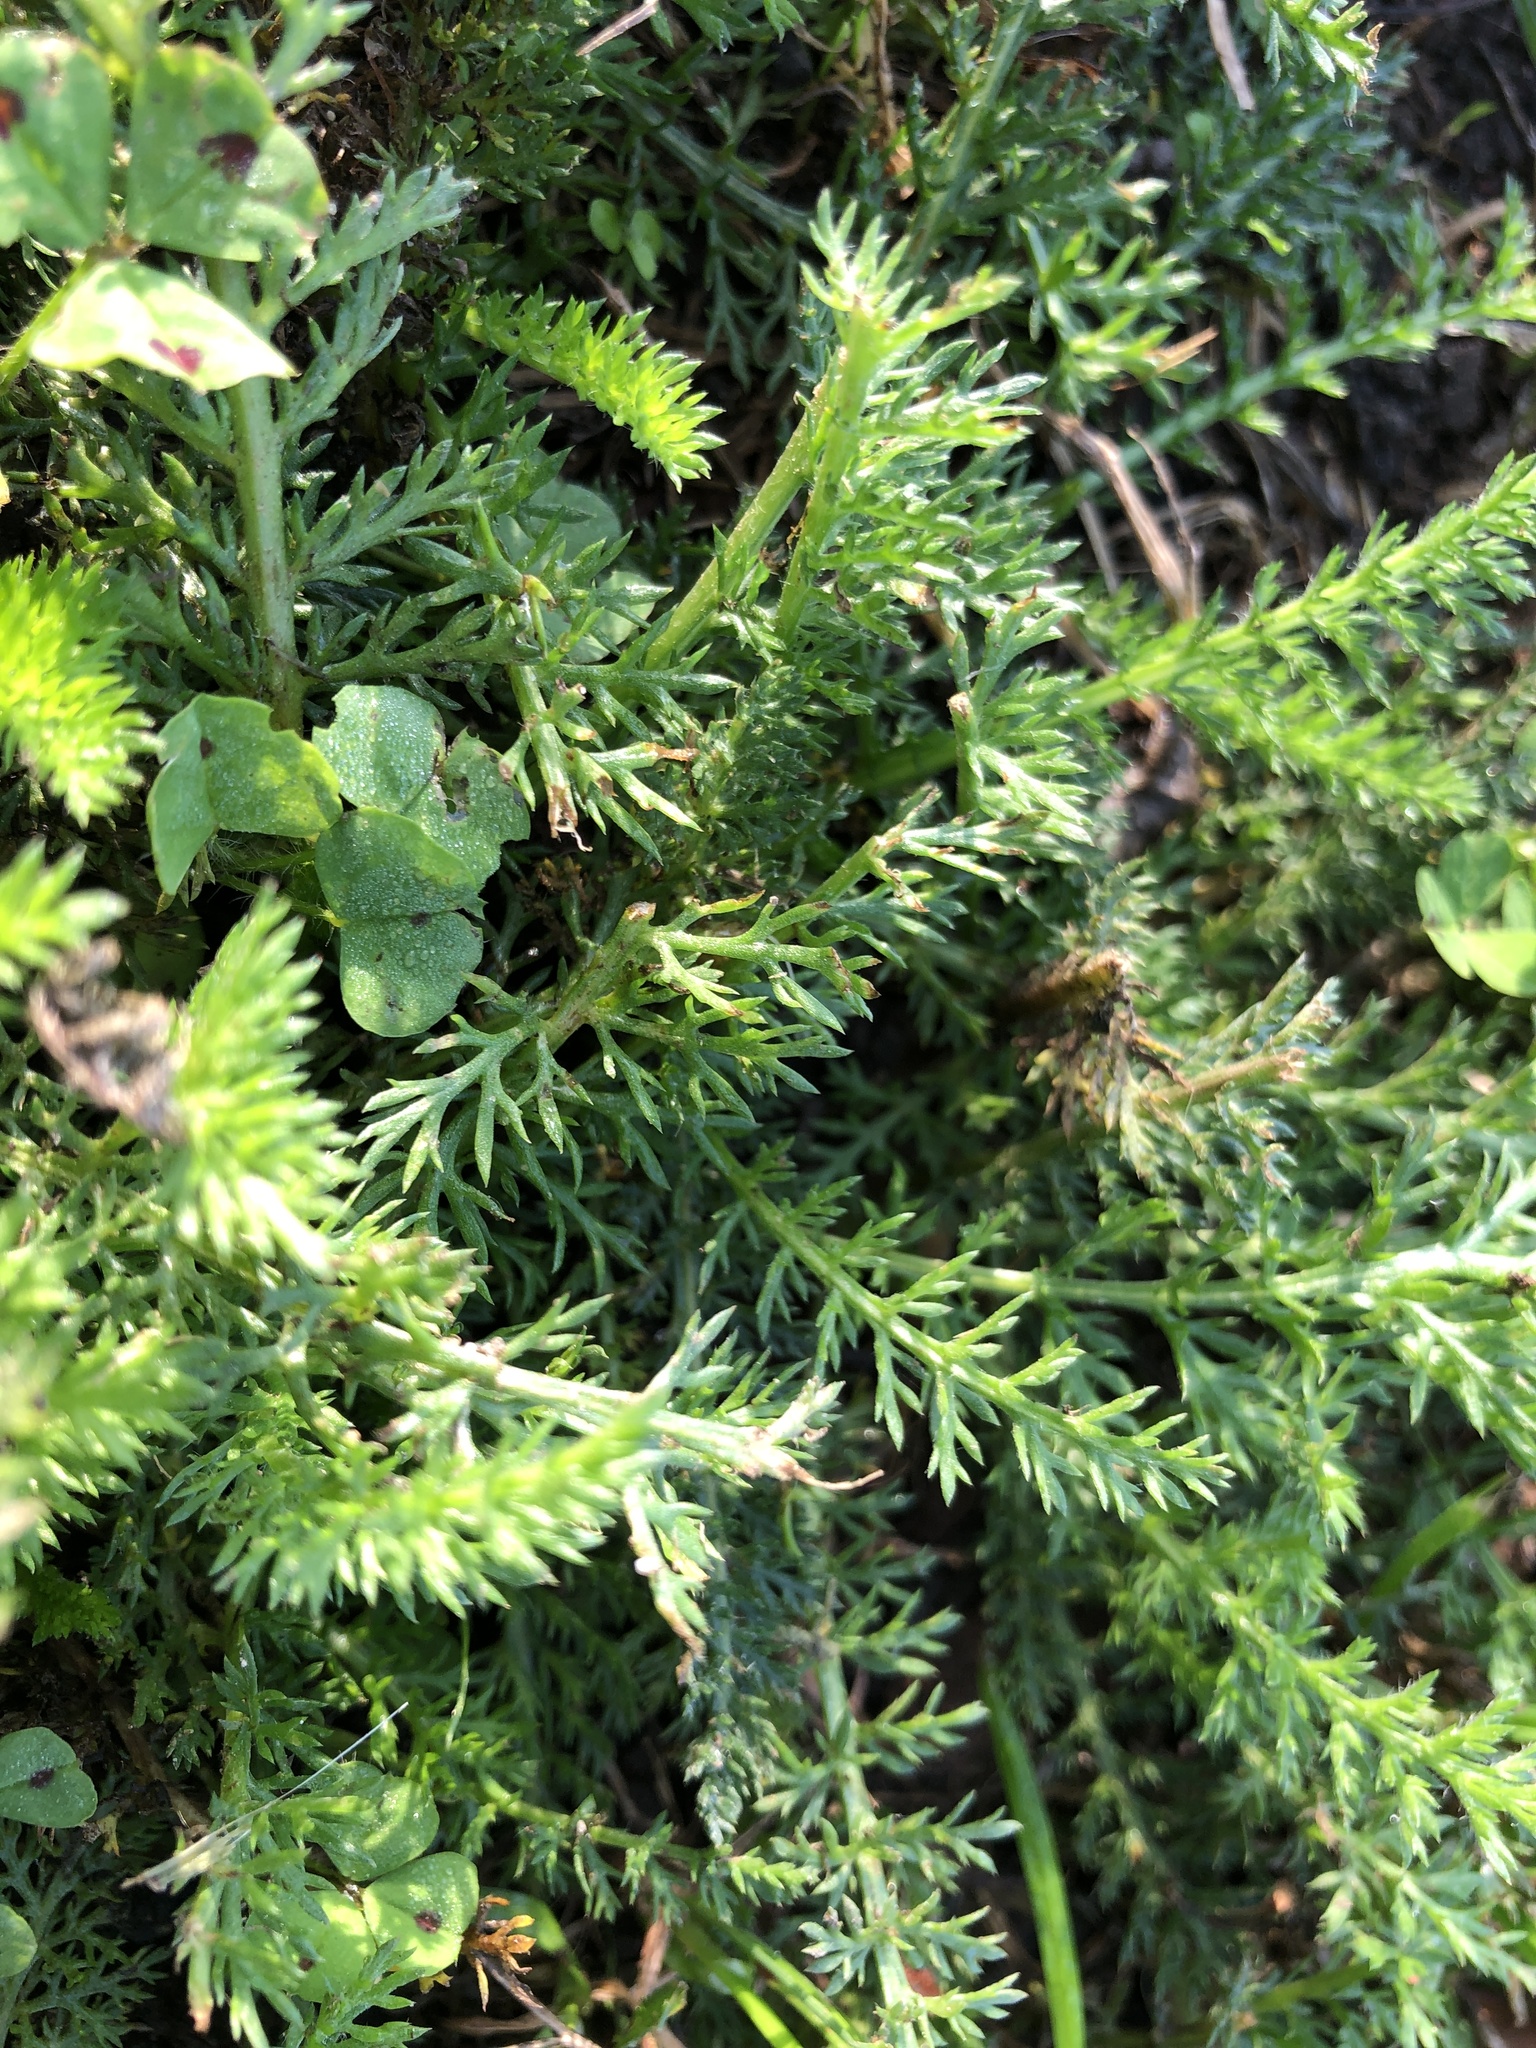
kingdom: Plantae
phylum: Tracheophyta
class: Magnoliopsida
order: Asterales
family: Asteraceae
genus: Achillea
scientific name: Achillea millefolium
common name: Yarrow
